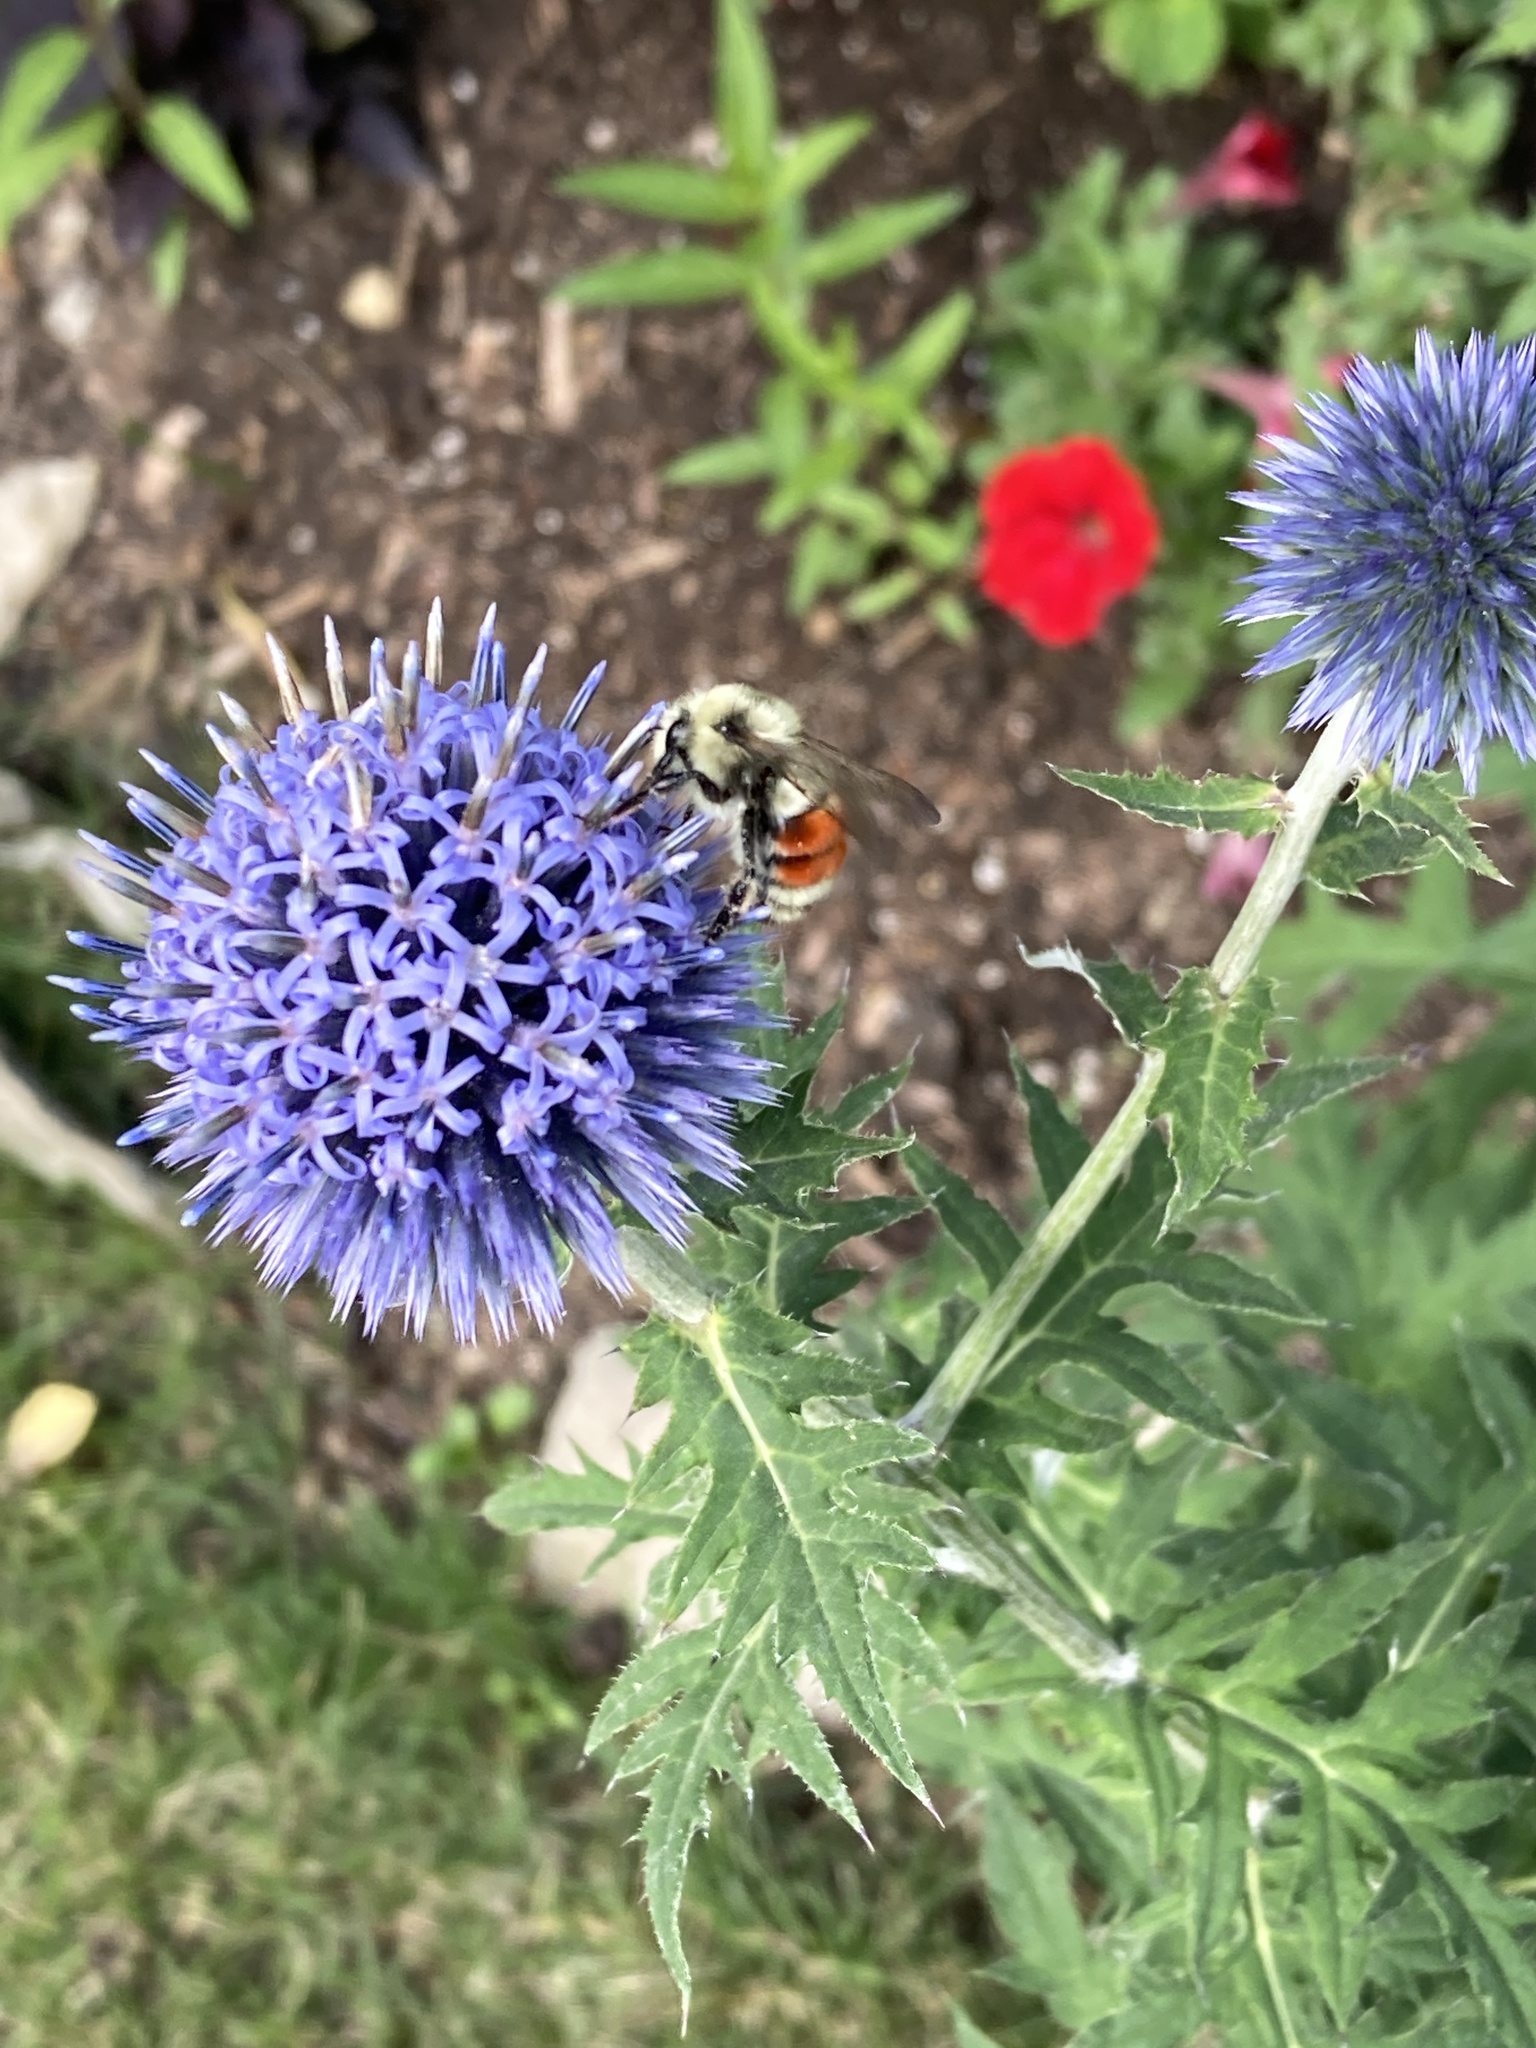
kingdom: Animalia
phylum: Arthropoda
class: Insecta
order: Hymenoptera
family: Apidae
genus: Bombus
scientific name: Bombus huntii
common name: Hunt bumble bee
